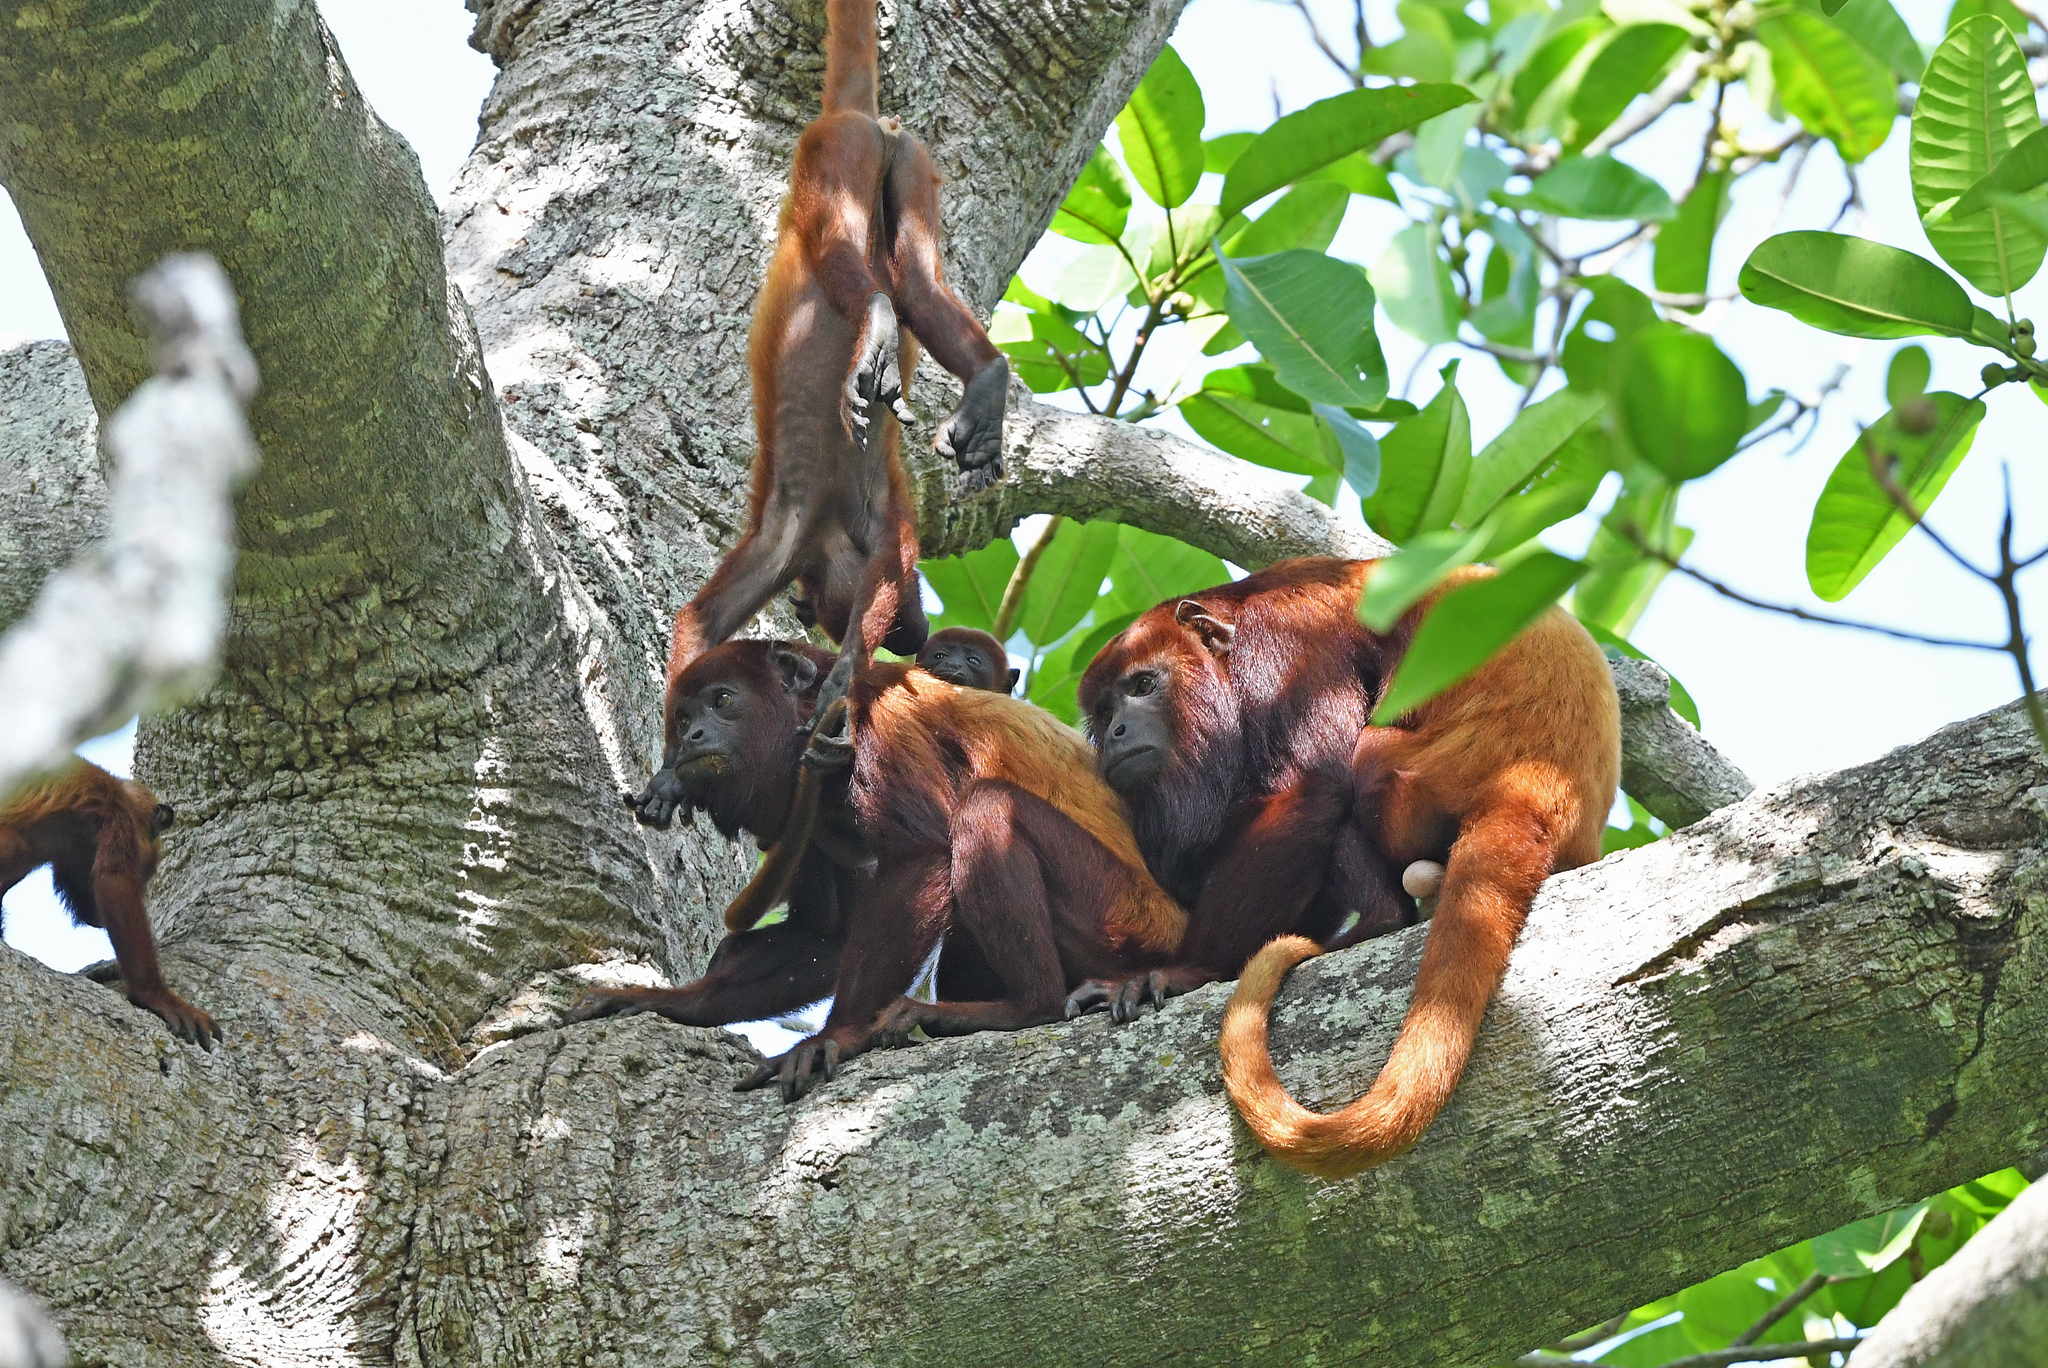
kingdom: Animalia
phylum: Chordata
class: Mammalia
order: Primates
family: Atelidae
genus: Alouatta
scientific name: Alouatta seniculus
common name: Venezuelan red howler
